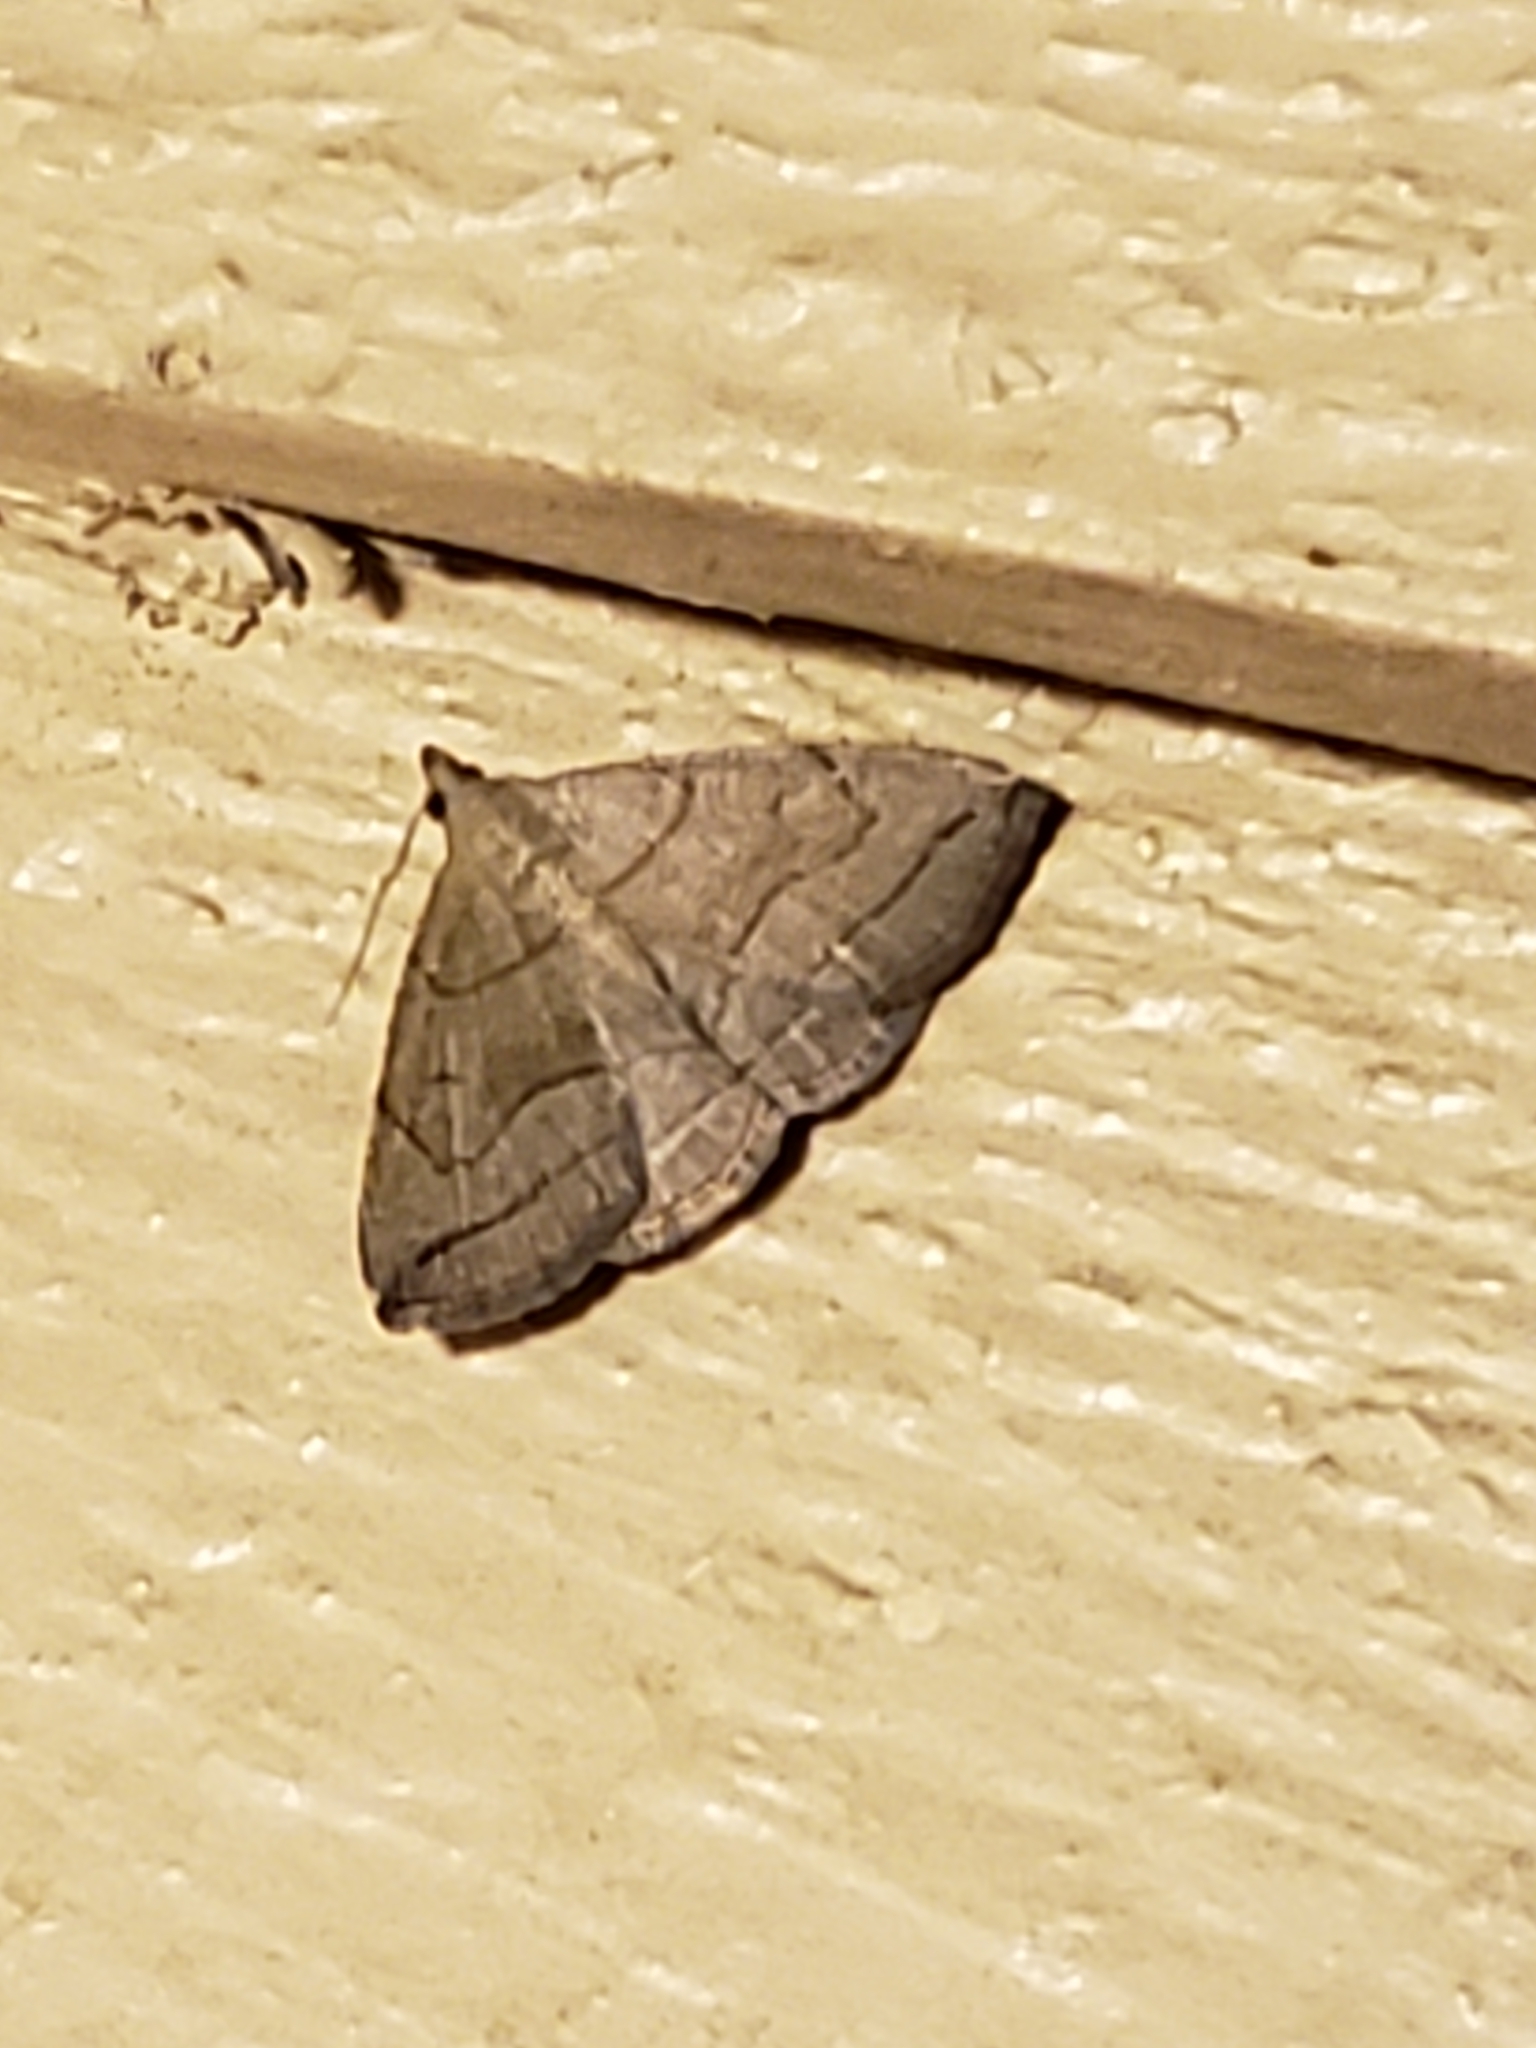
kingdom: Animalia
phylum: Arthropoda
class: Insecta
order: Lepidoptera
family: Erebidae
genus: Zanclognatha
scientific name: Zanclognatha pedipilalis
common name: Grayish fan-foot
